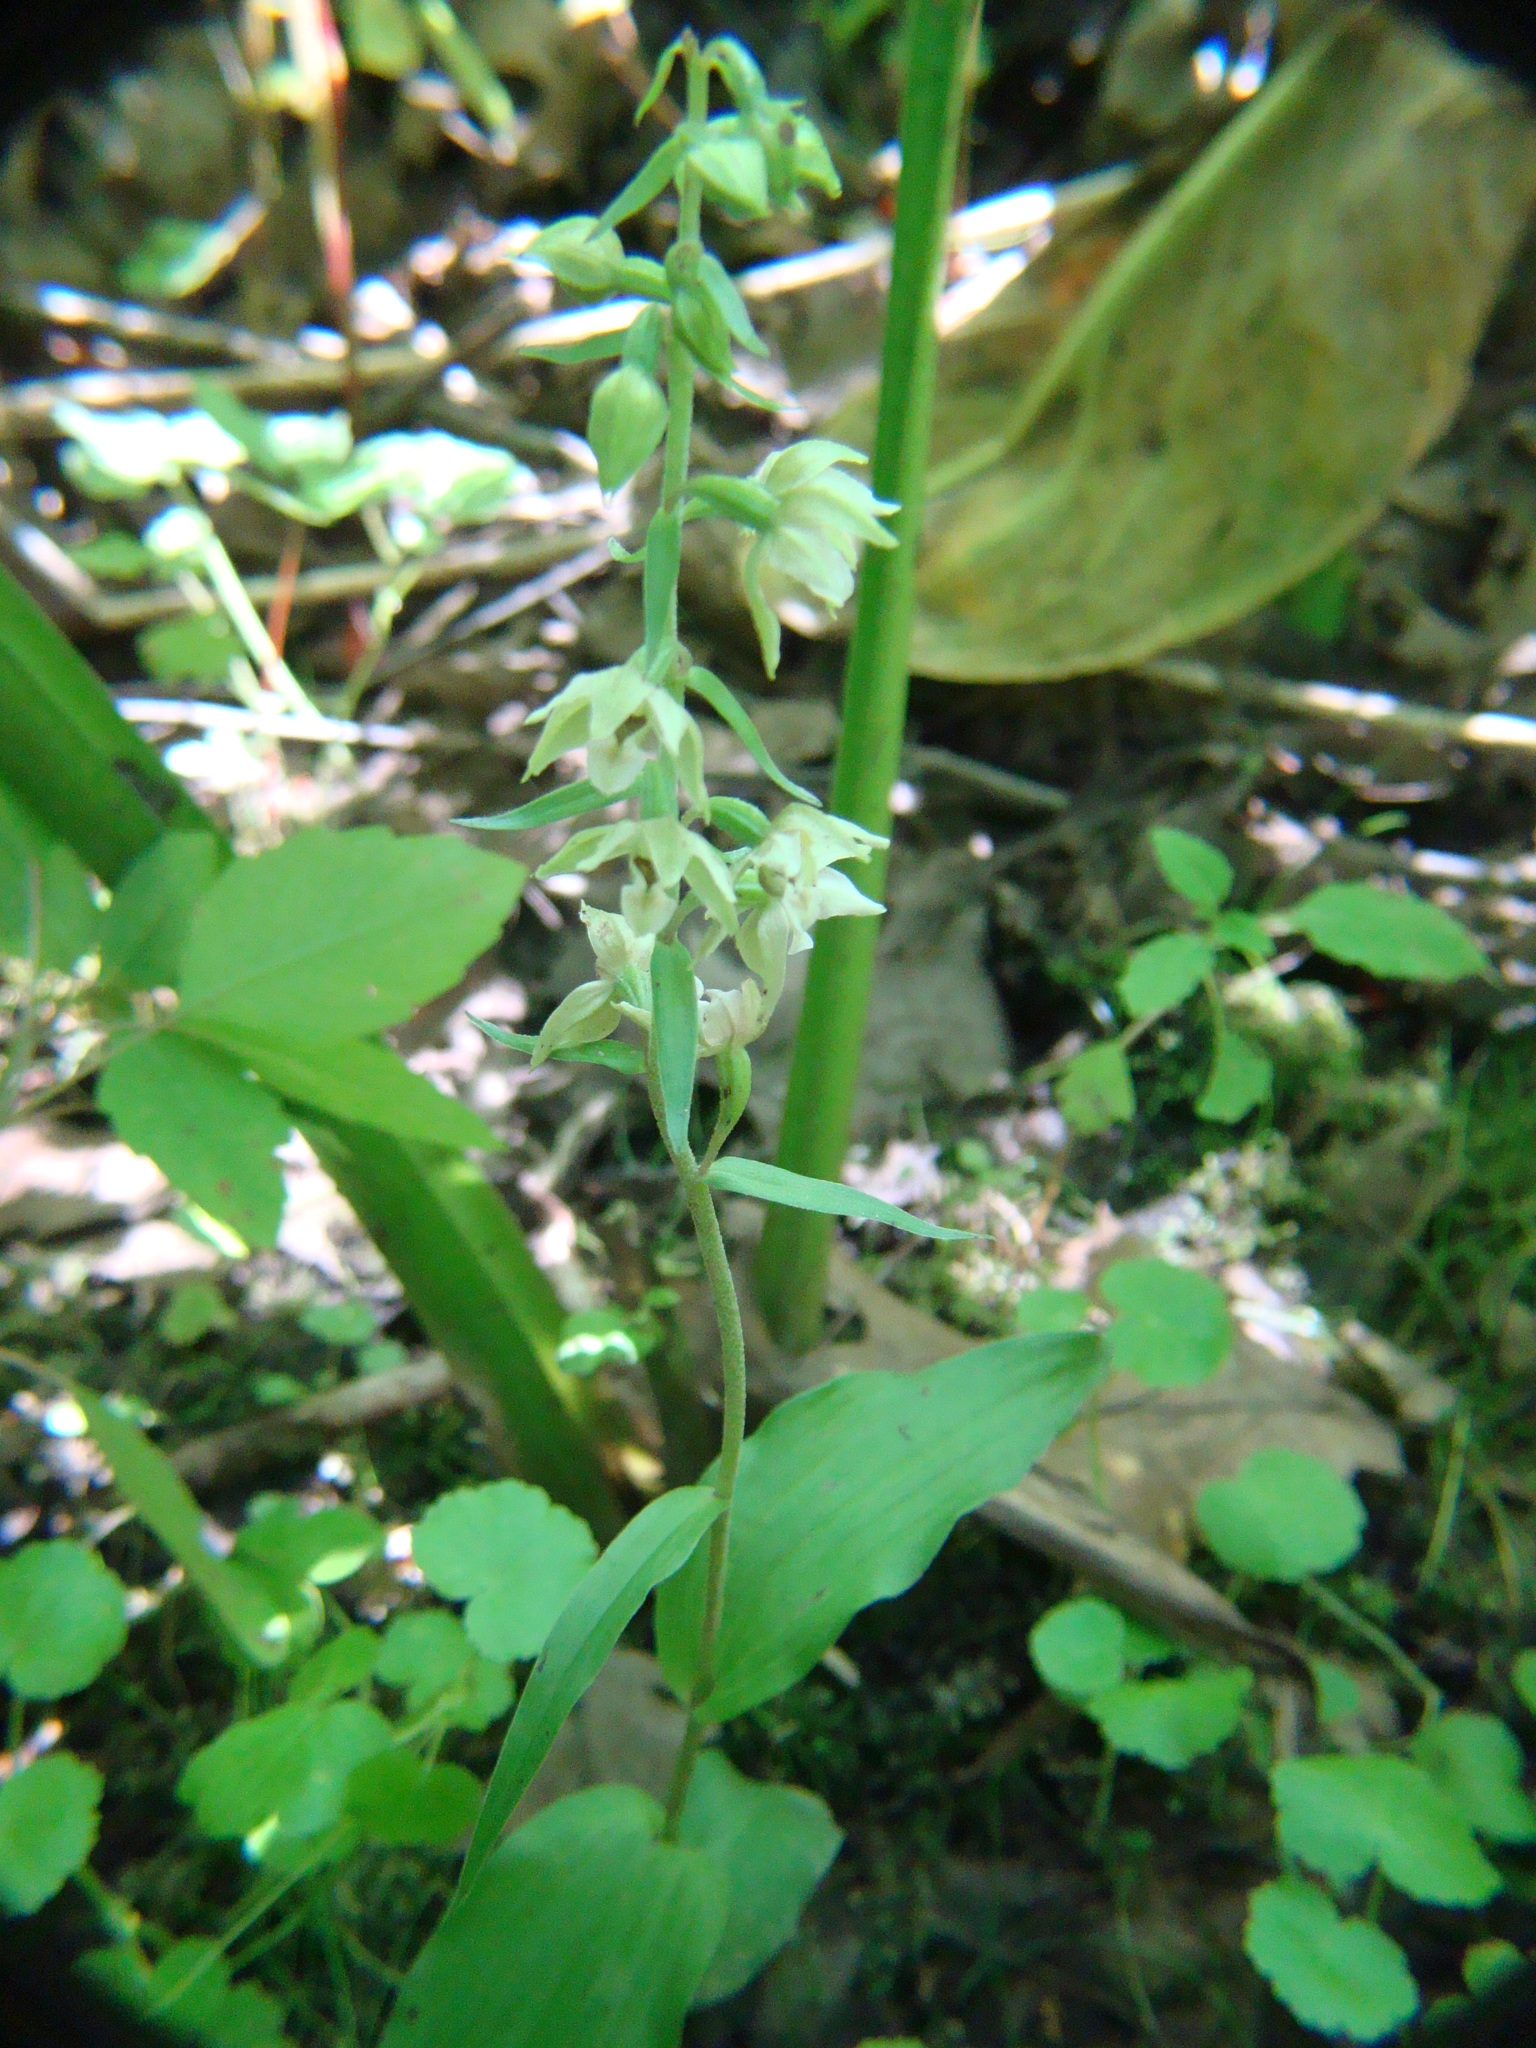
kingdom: Plantae
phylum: Tracheophyta
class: Liliopsida
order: Asparagales
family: Orchidaceae
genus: Epipactis
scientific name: Epipactis helleborine
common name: Broad-leaved helleborine
